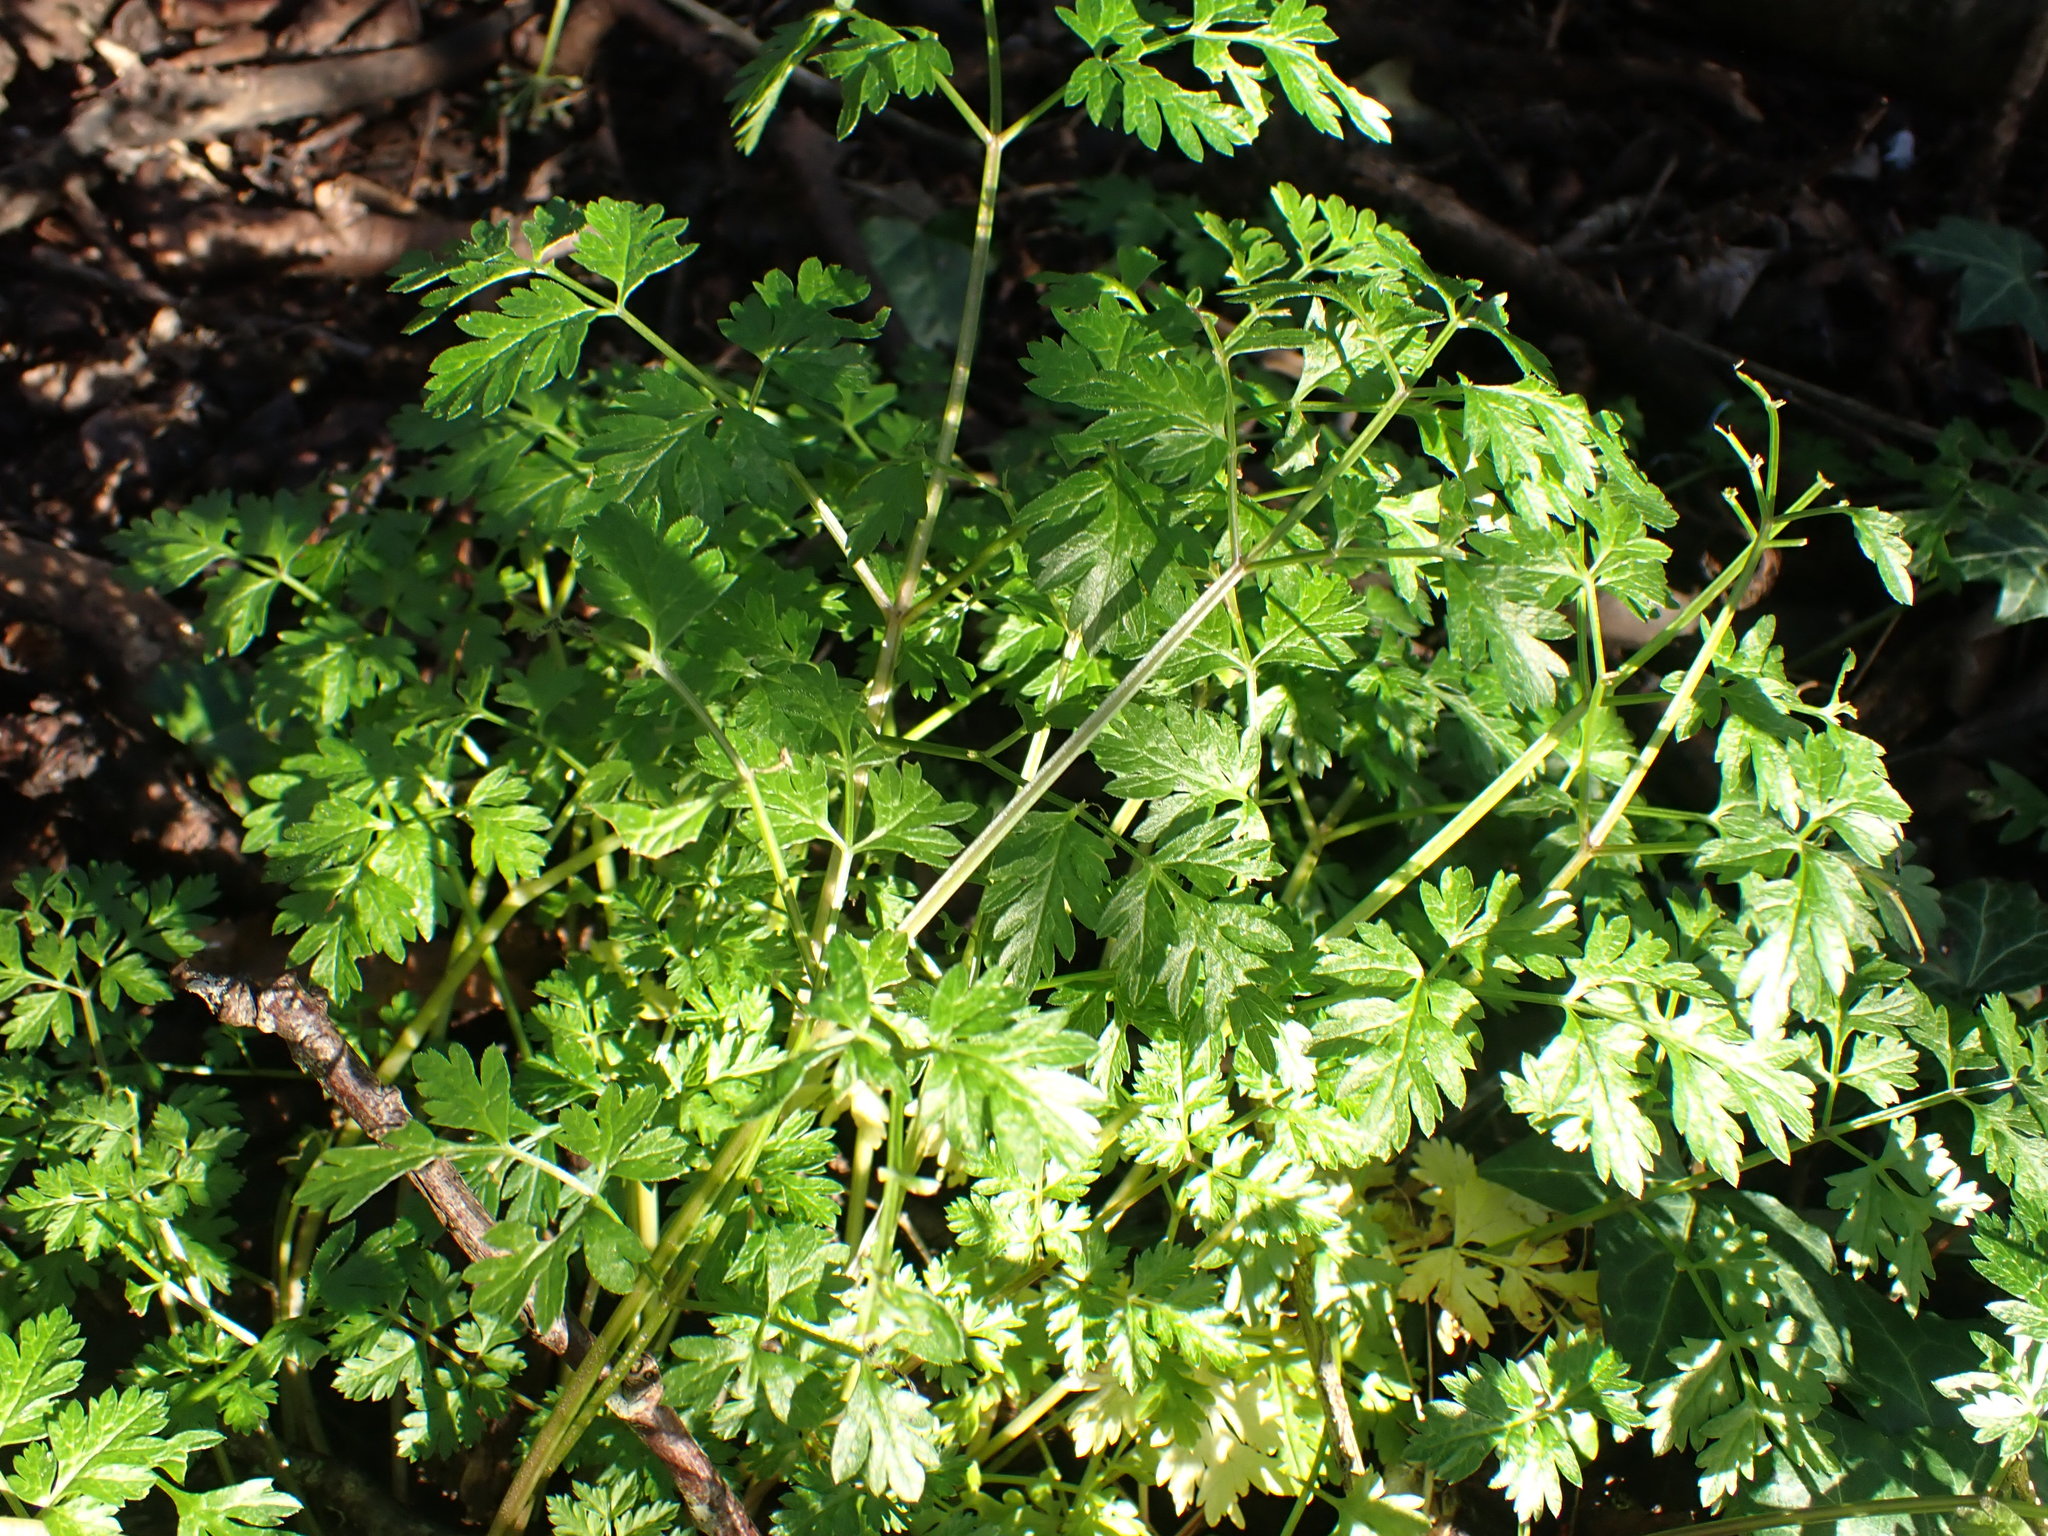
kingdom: Plantae
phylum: Tracheophyta
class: Magnoliopsida
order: Apiales
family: Apiaceae
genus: Anthriscus
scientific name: Anthriscus sylvestris
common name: Cow parsley
